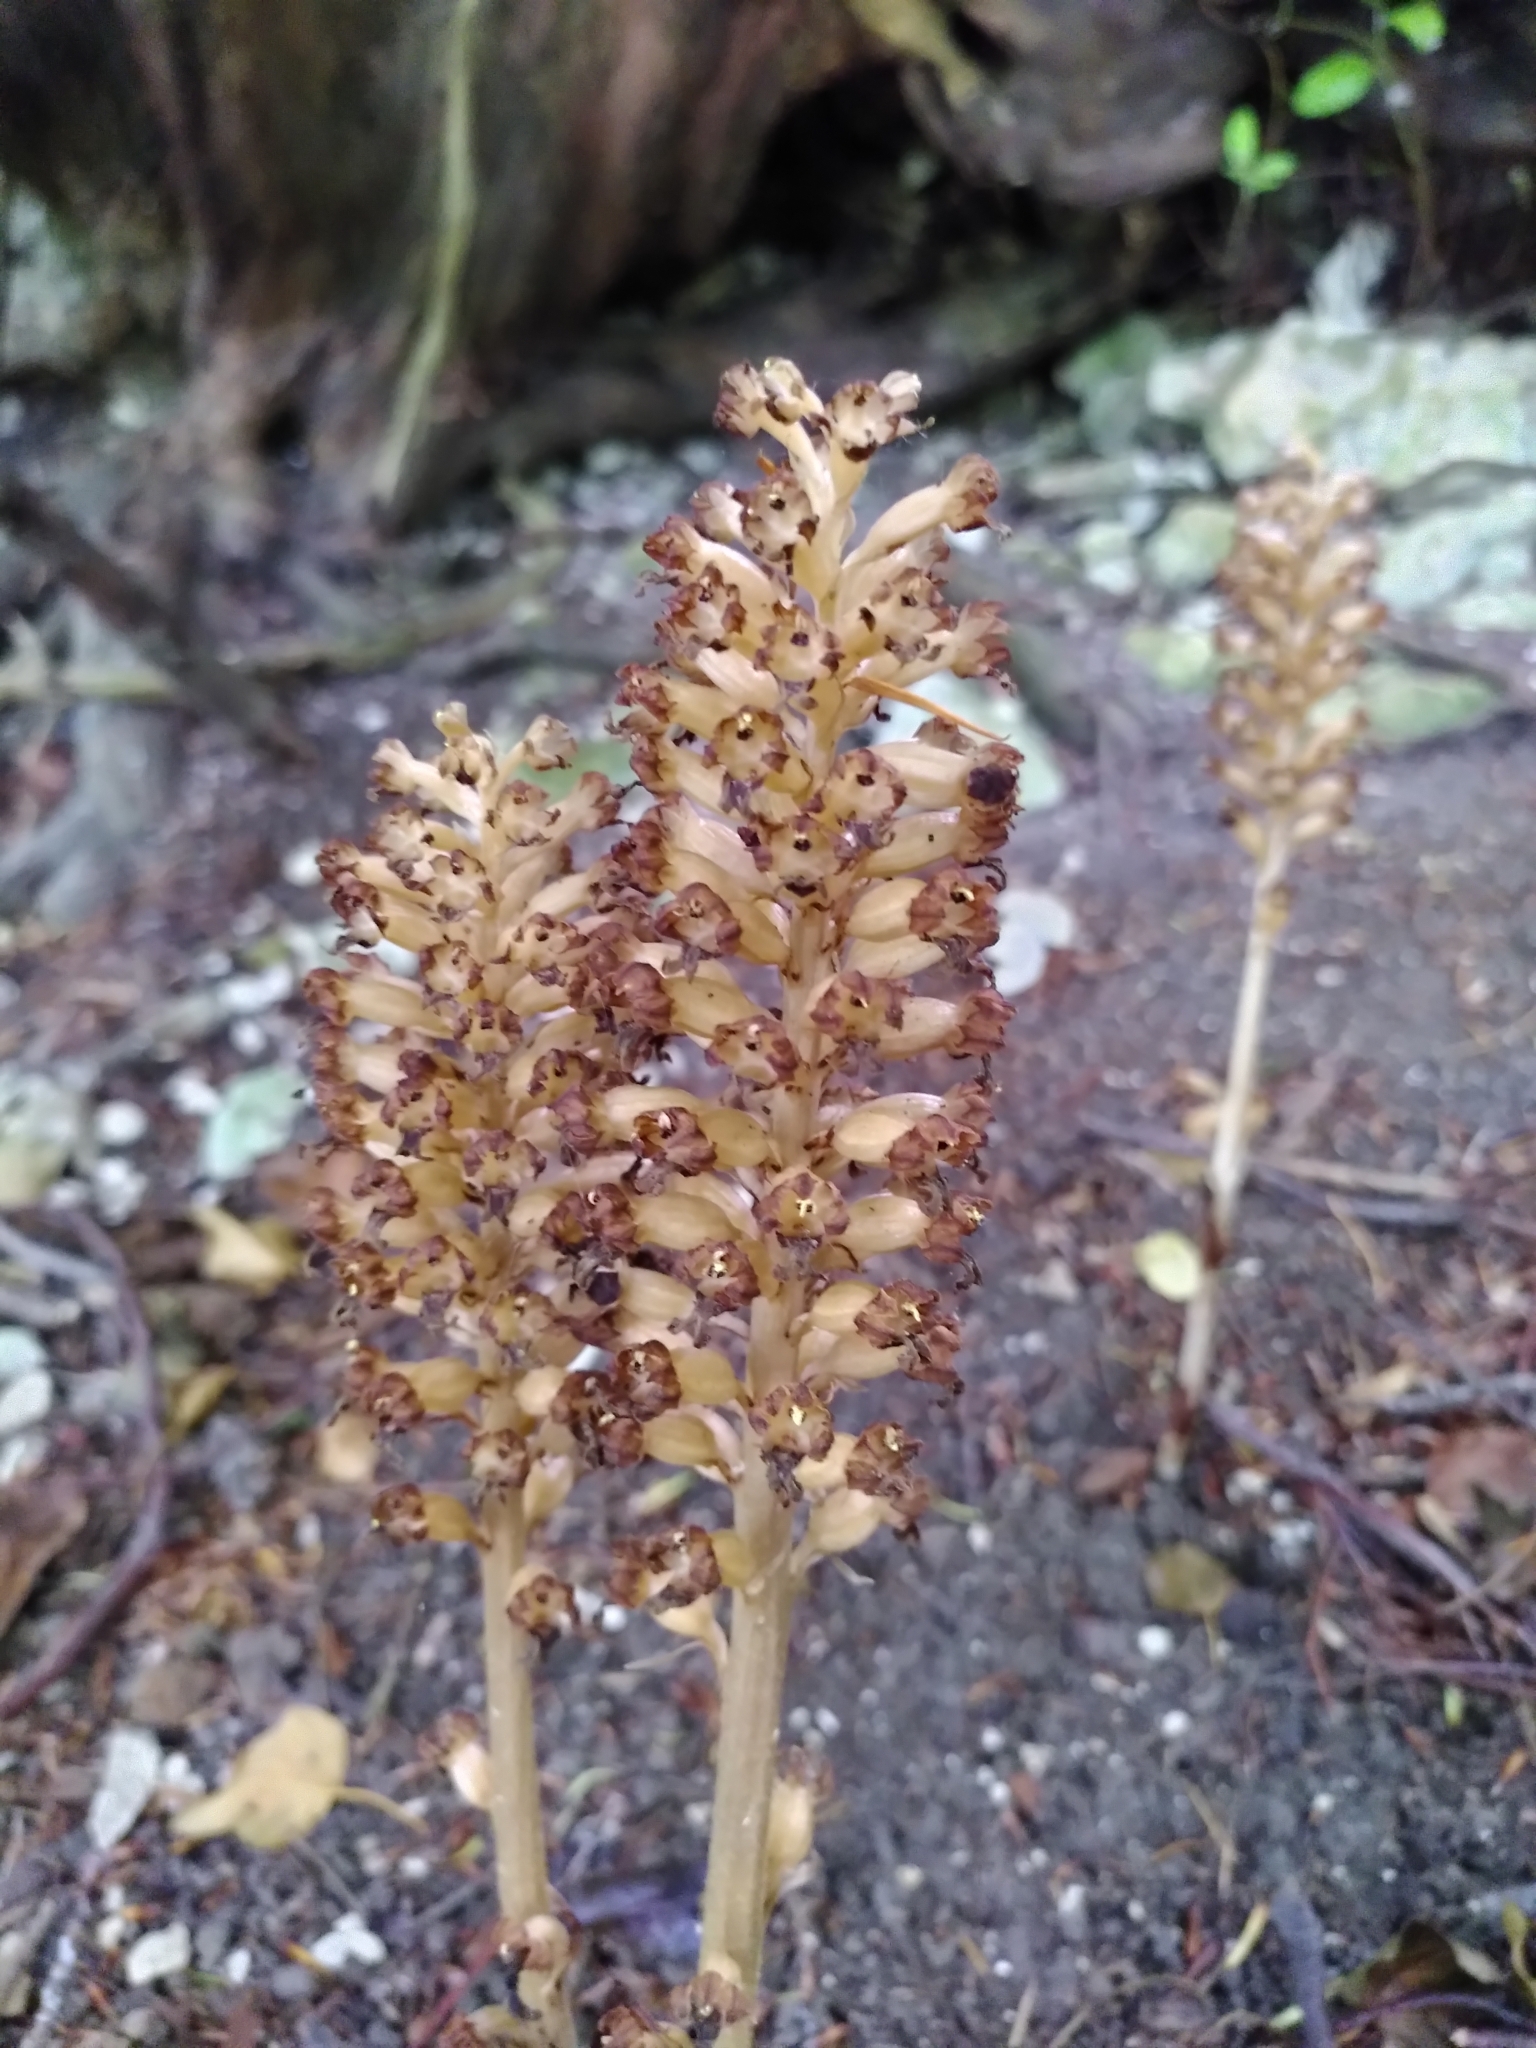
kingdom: Plantae
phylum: Tracheophyta
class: Liliopsida
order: Asparagales
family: Orchidaceae
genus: Neottia
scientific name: Neottia nidus-avis
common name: Bird's-nest orchid
